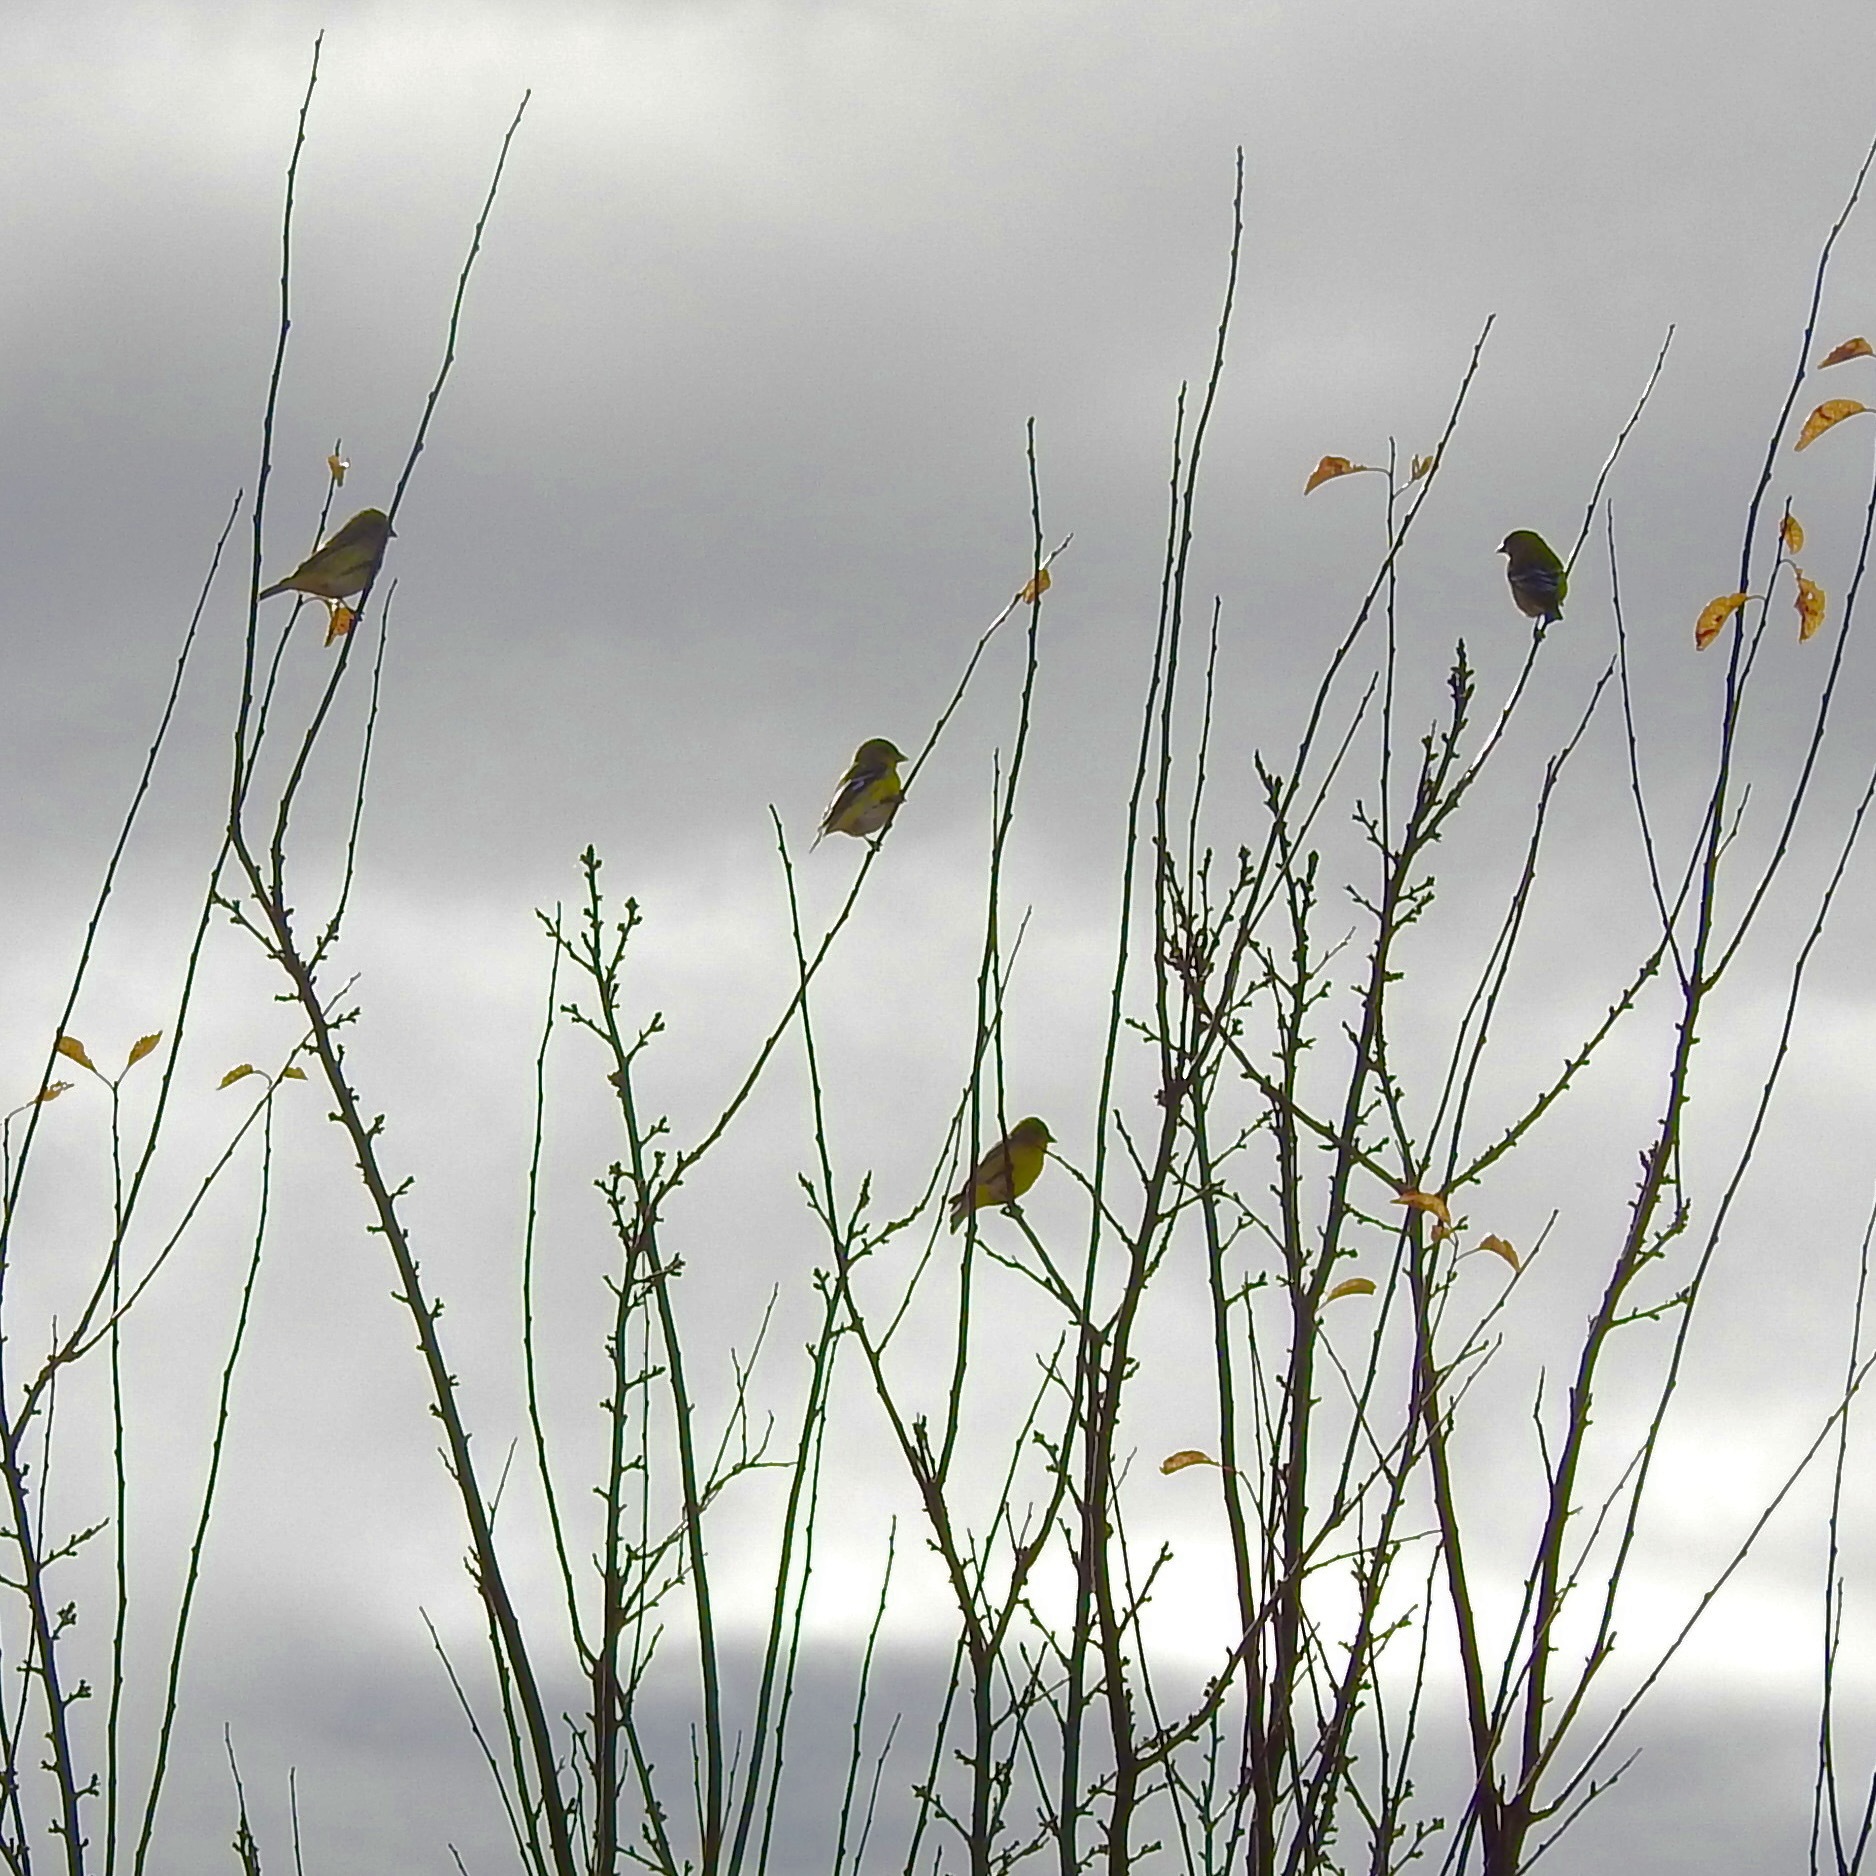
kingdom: Animalia
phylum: Chordata
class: Aves
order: Passeriformes
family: Fringillidae
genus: Spinus
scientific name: Spinus psaltria
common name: Lesser goldfinch
